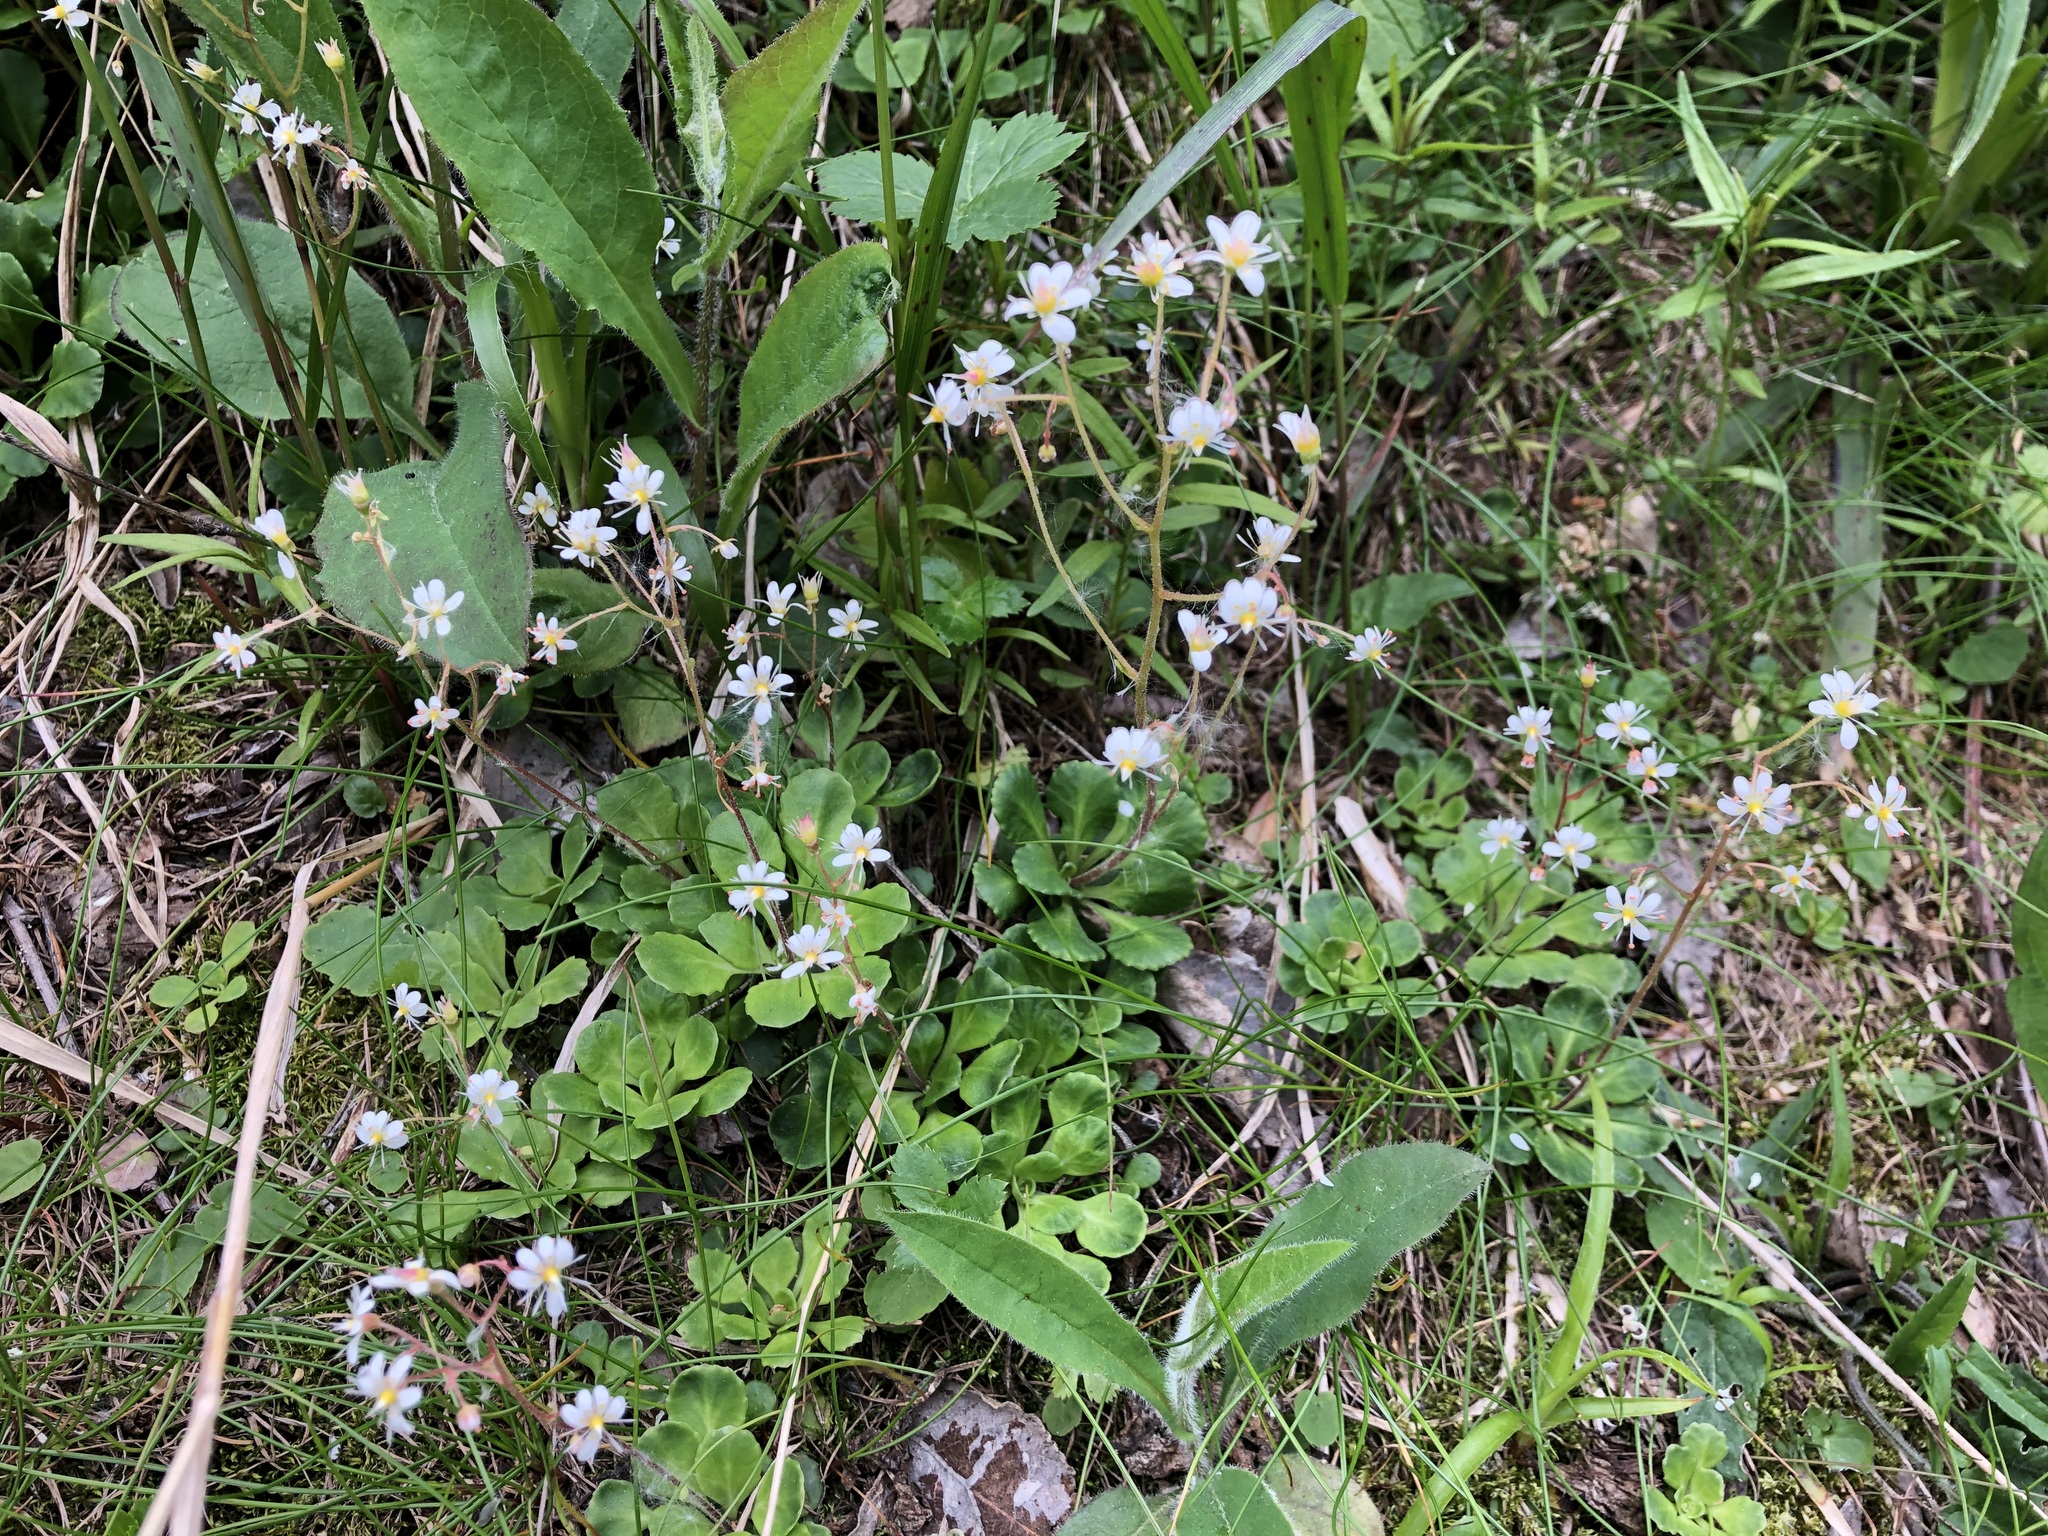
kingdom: Plantae
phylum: Tracheophyta
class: Magnoliopsida
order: Saxifragales
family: Saxifragaceae
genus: Saxifraga
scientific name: Saxifraga cuneifolia
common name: Lesser londonpride
